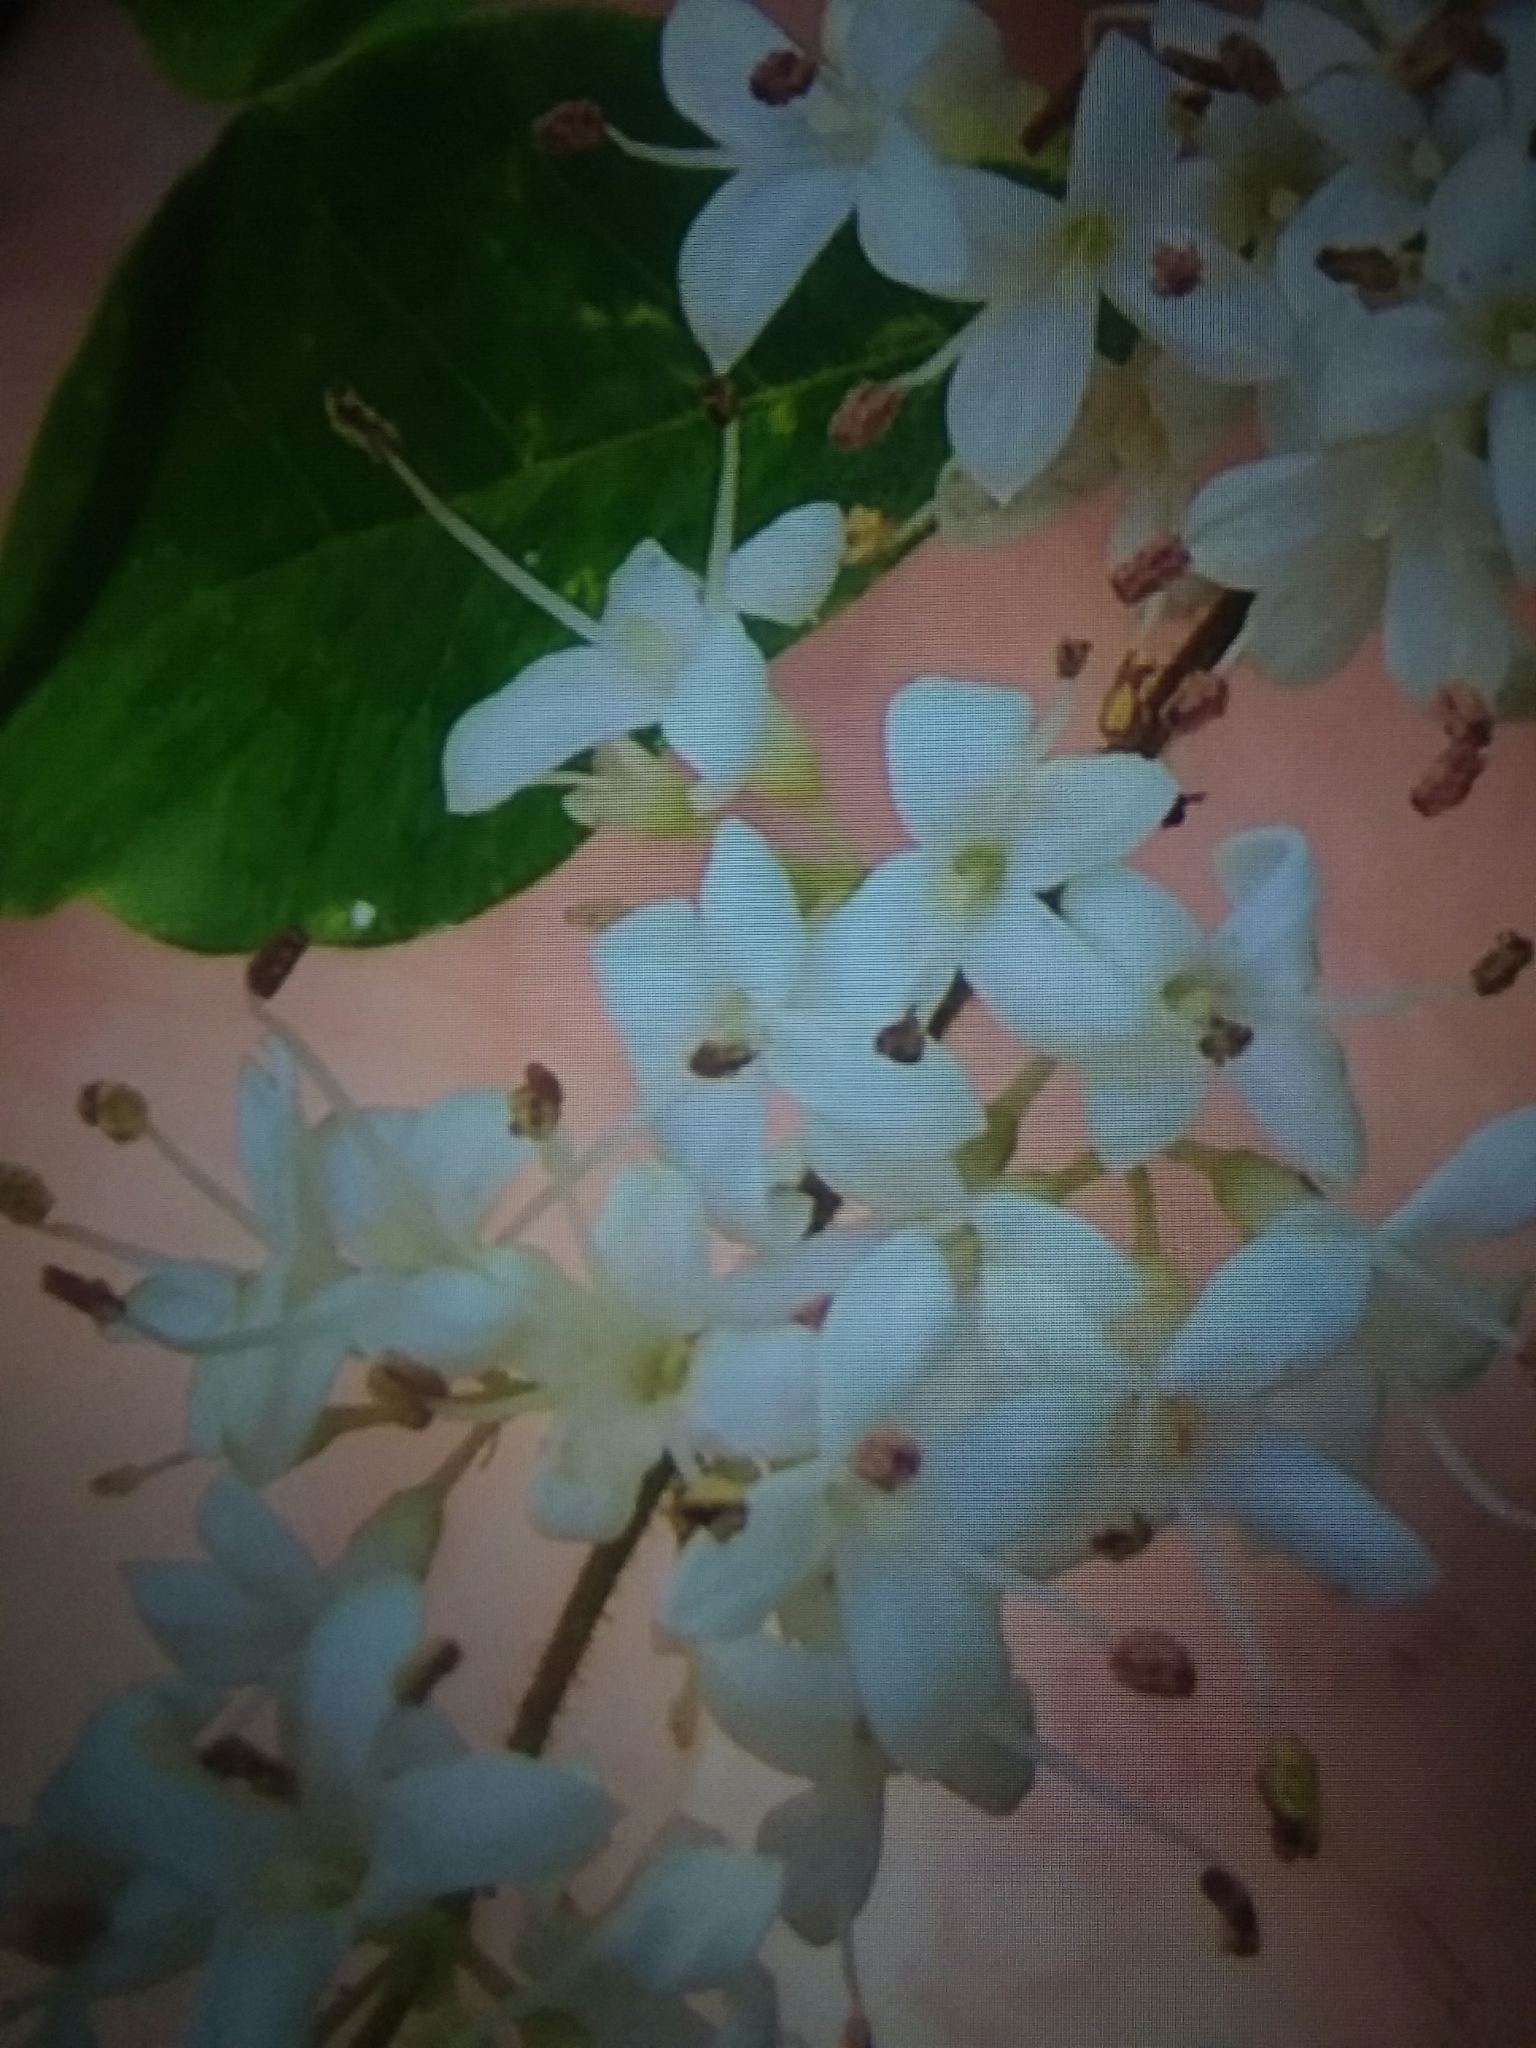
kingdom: Plantae
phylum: Tracheophyta
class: Magnoliopsida
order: Lamiales
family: Oleaceae
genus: Ligustrum
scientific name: Ligustrum sinense
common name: Chinese privet
